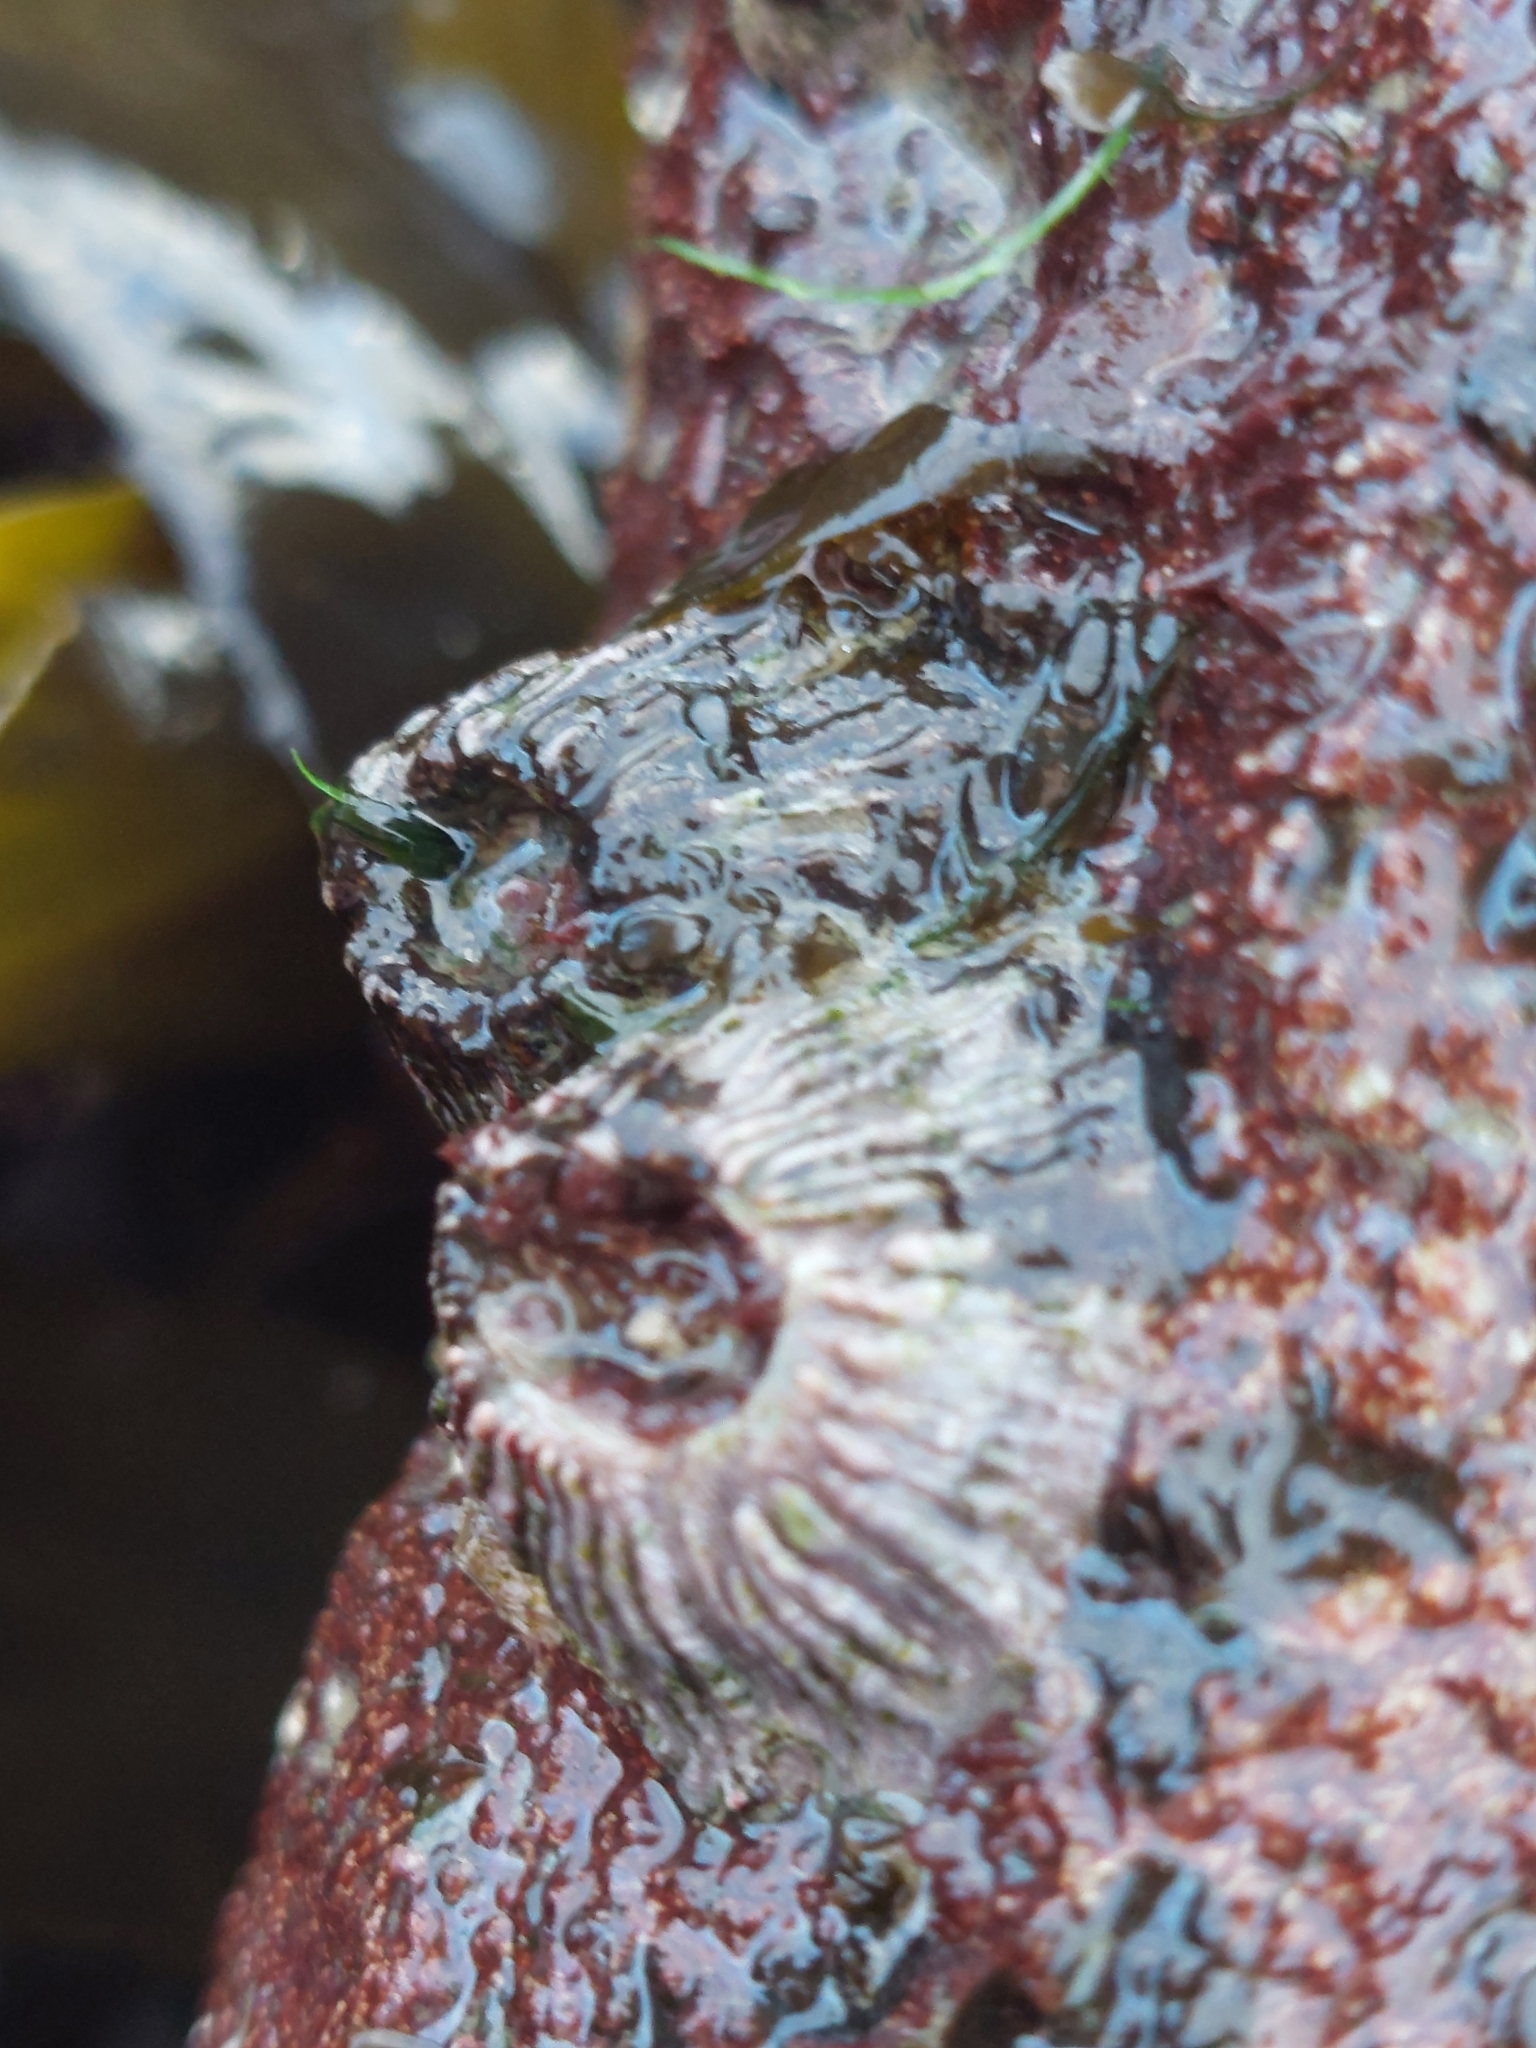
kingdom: Animalia
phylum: Arthropoda
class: Maxillopoda
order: Sessilia
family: Balanidae
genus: Perforatus
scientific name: Perforatus perforatus
